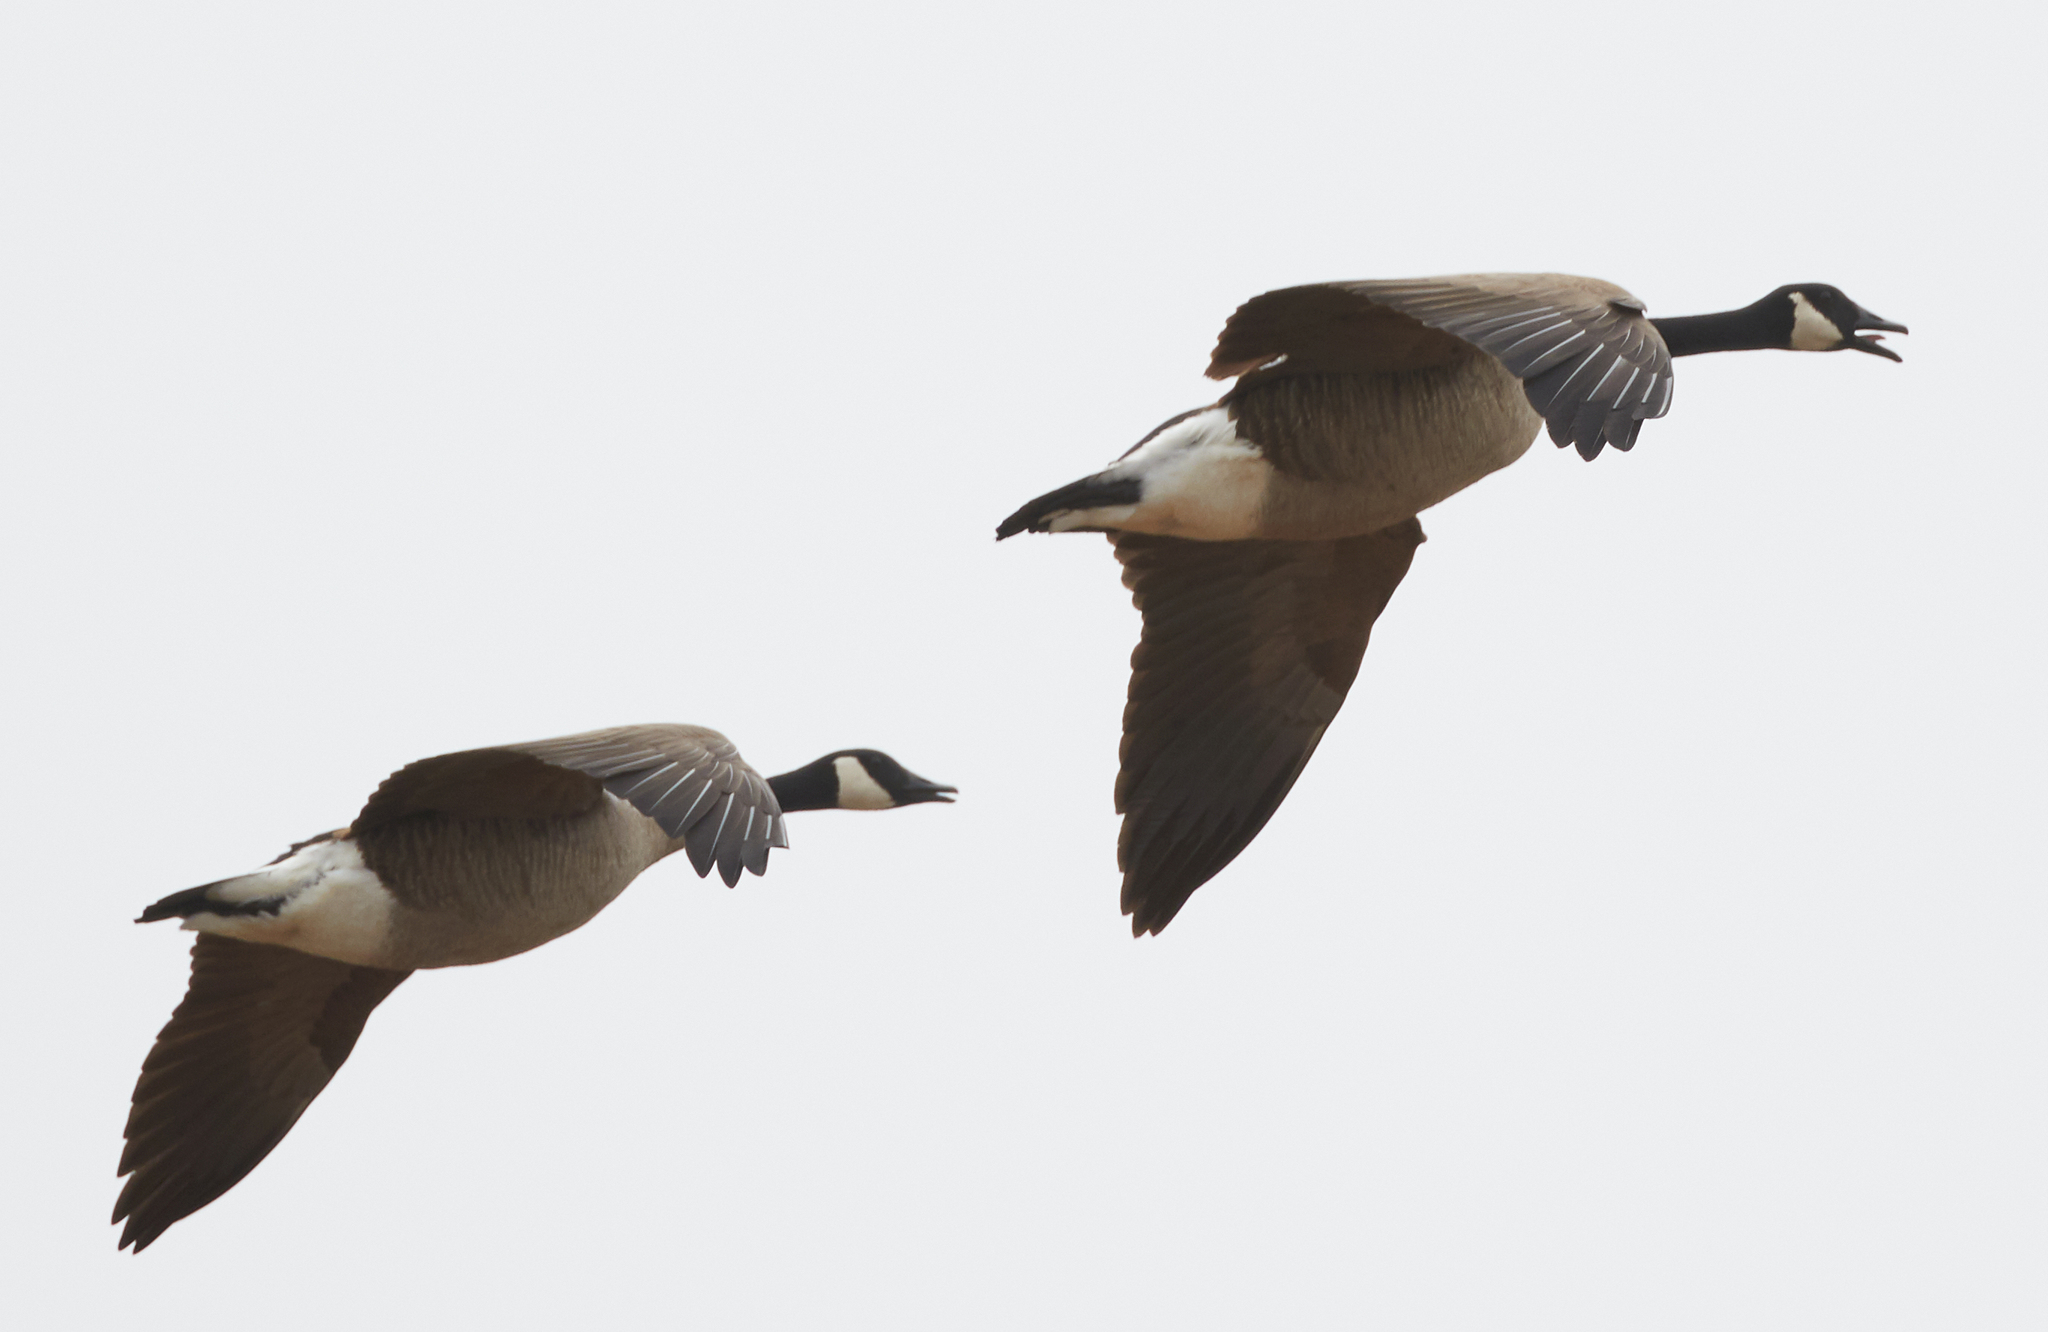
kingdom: Animalia
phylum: Chordata
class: Aves
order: Anseriformes
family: Anatidae
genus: Branta
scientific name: Branta canadensis
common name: Canada goose
